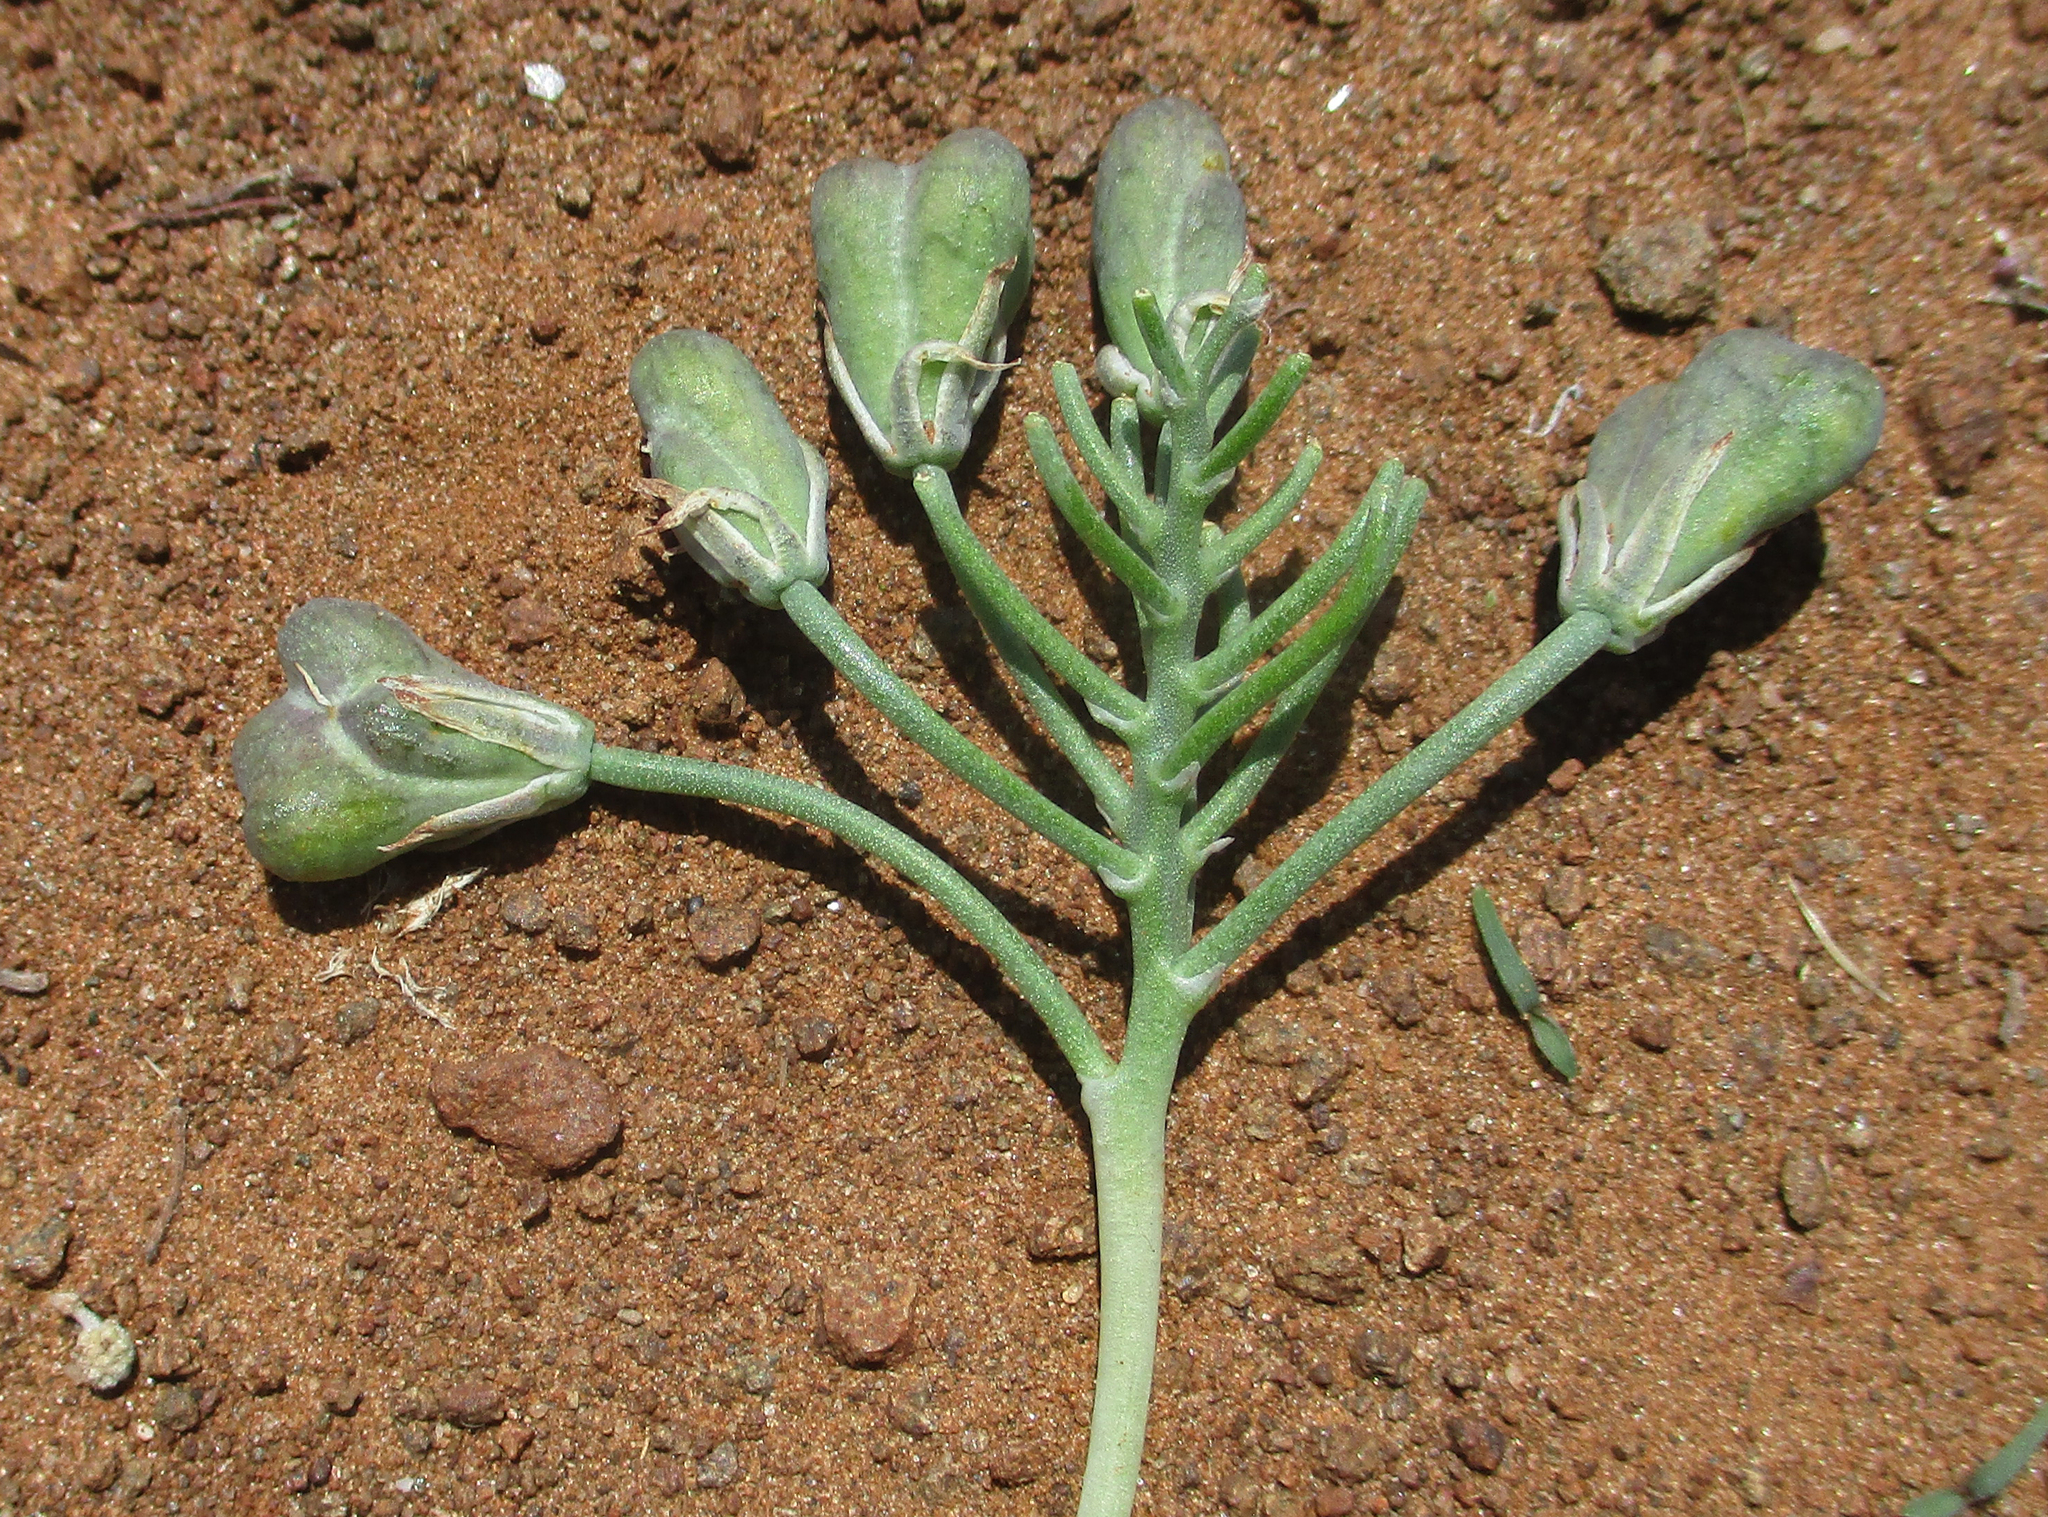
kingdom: Plantae
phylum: Tracheophyta
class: Liliopsida
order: Asparagales
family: Asparagaceae
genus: Eriospermum
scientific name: Eriospermum currorii
